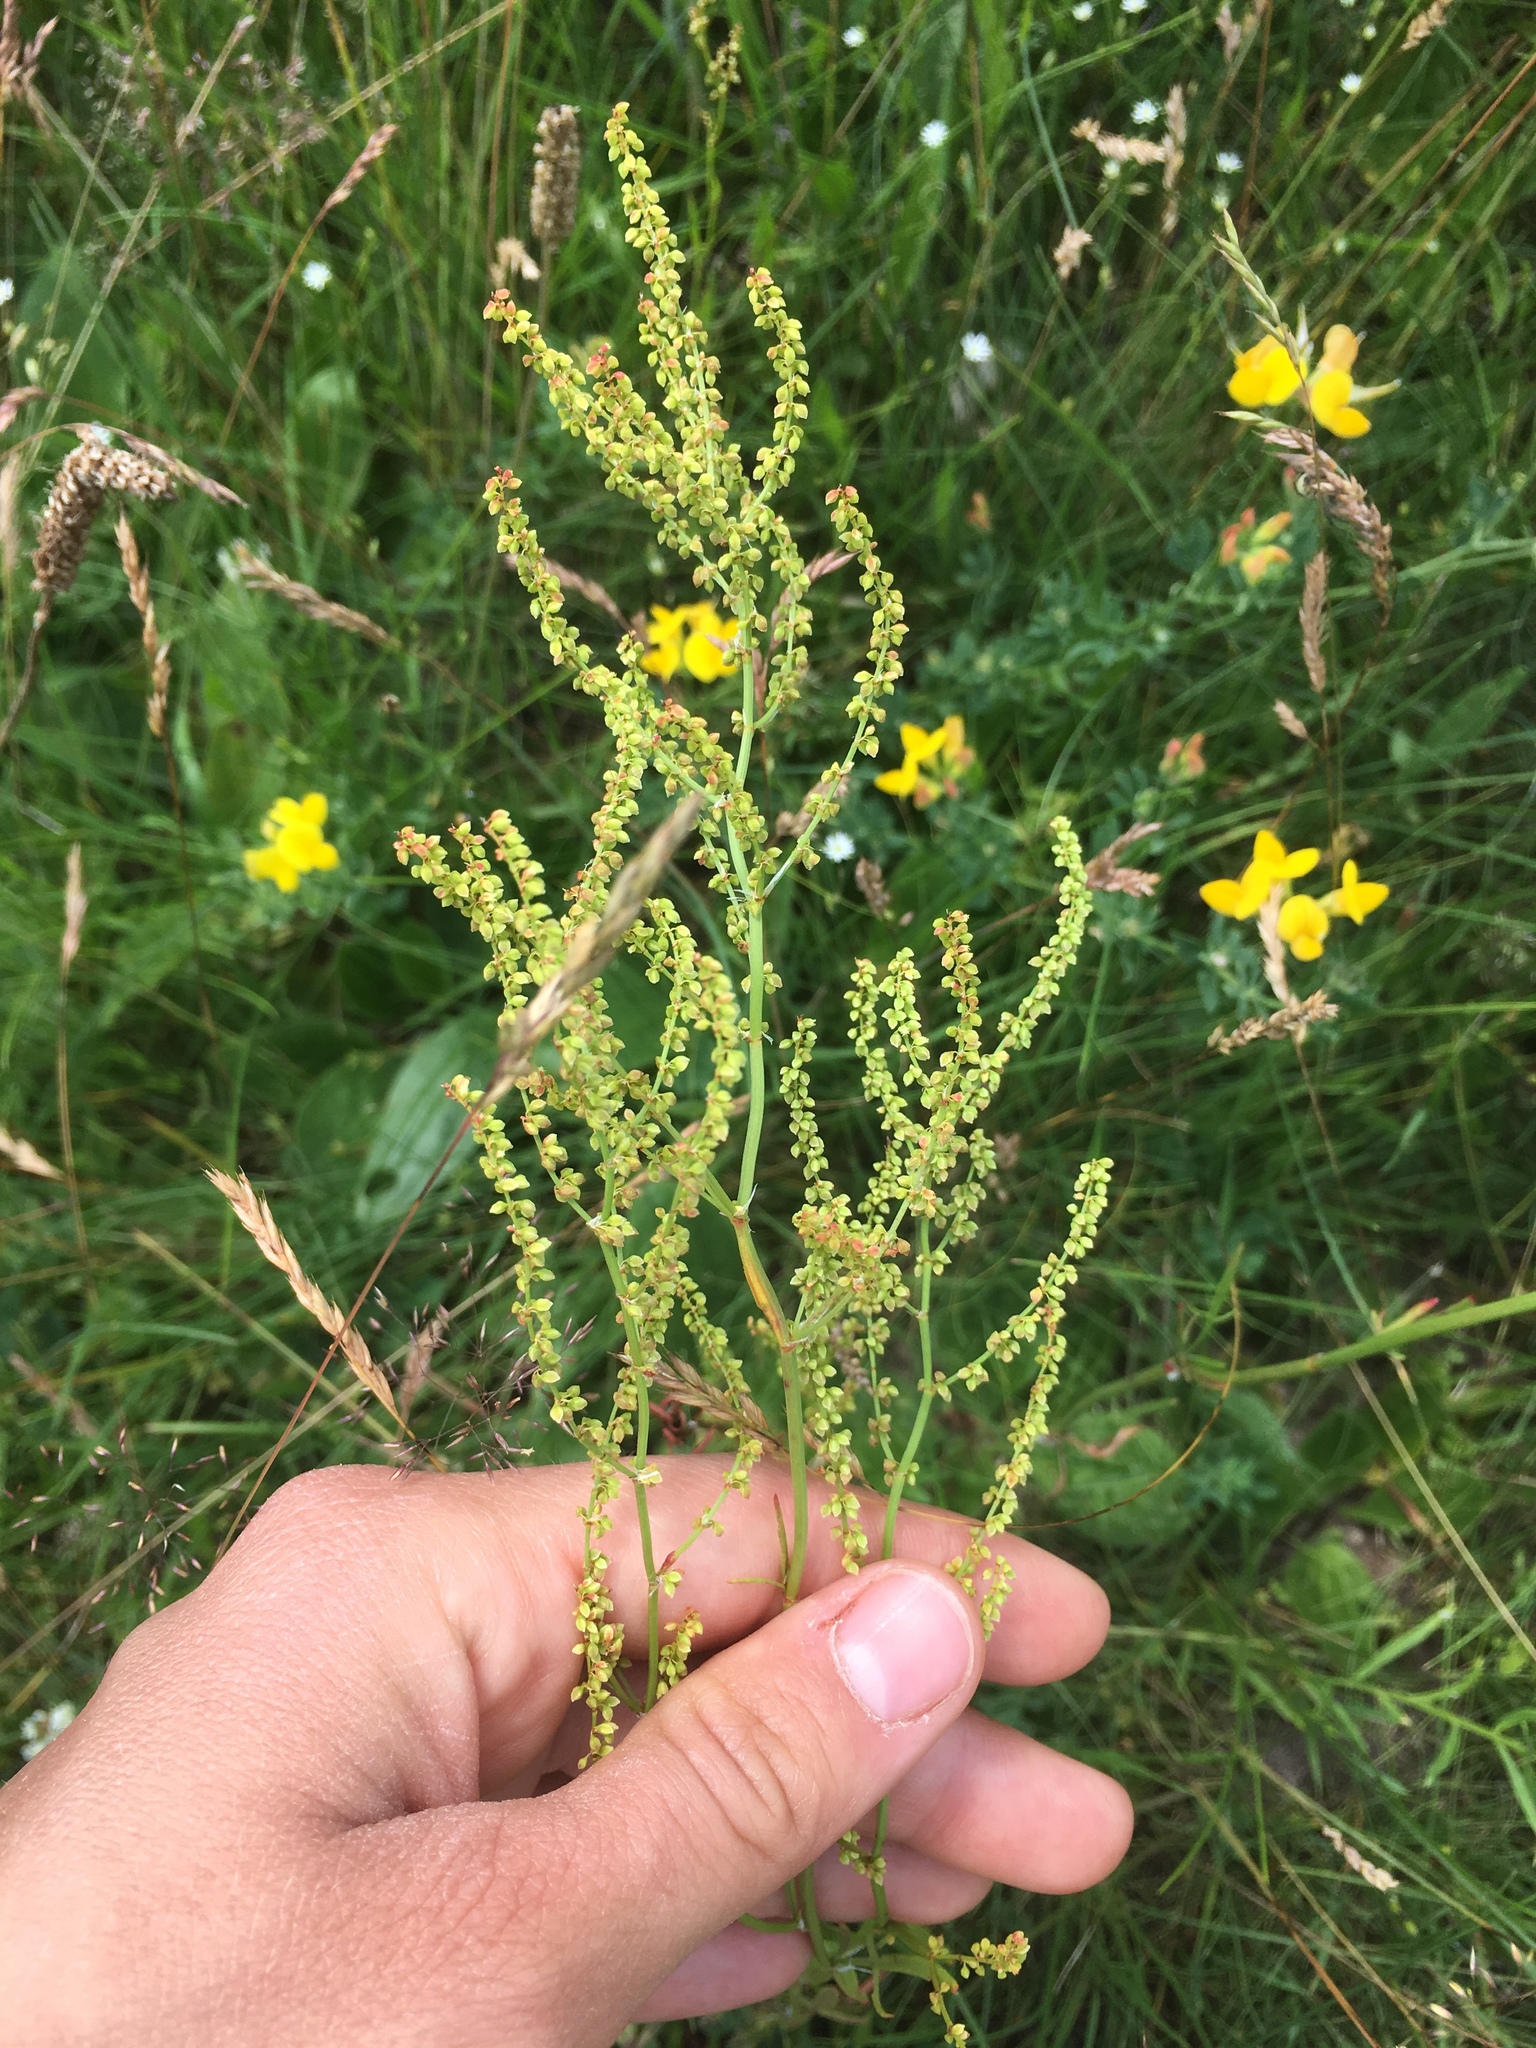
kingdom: Plantae
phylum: Tracheophyta
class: Magnoliopsida
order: Caryophyllales
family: Polygonaceae
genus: Rumex
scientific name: Rumex acetosella
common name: Common sheep sorrel
